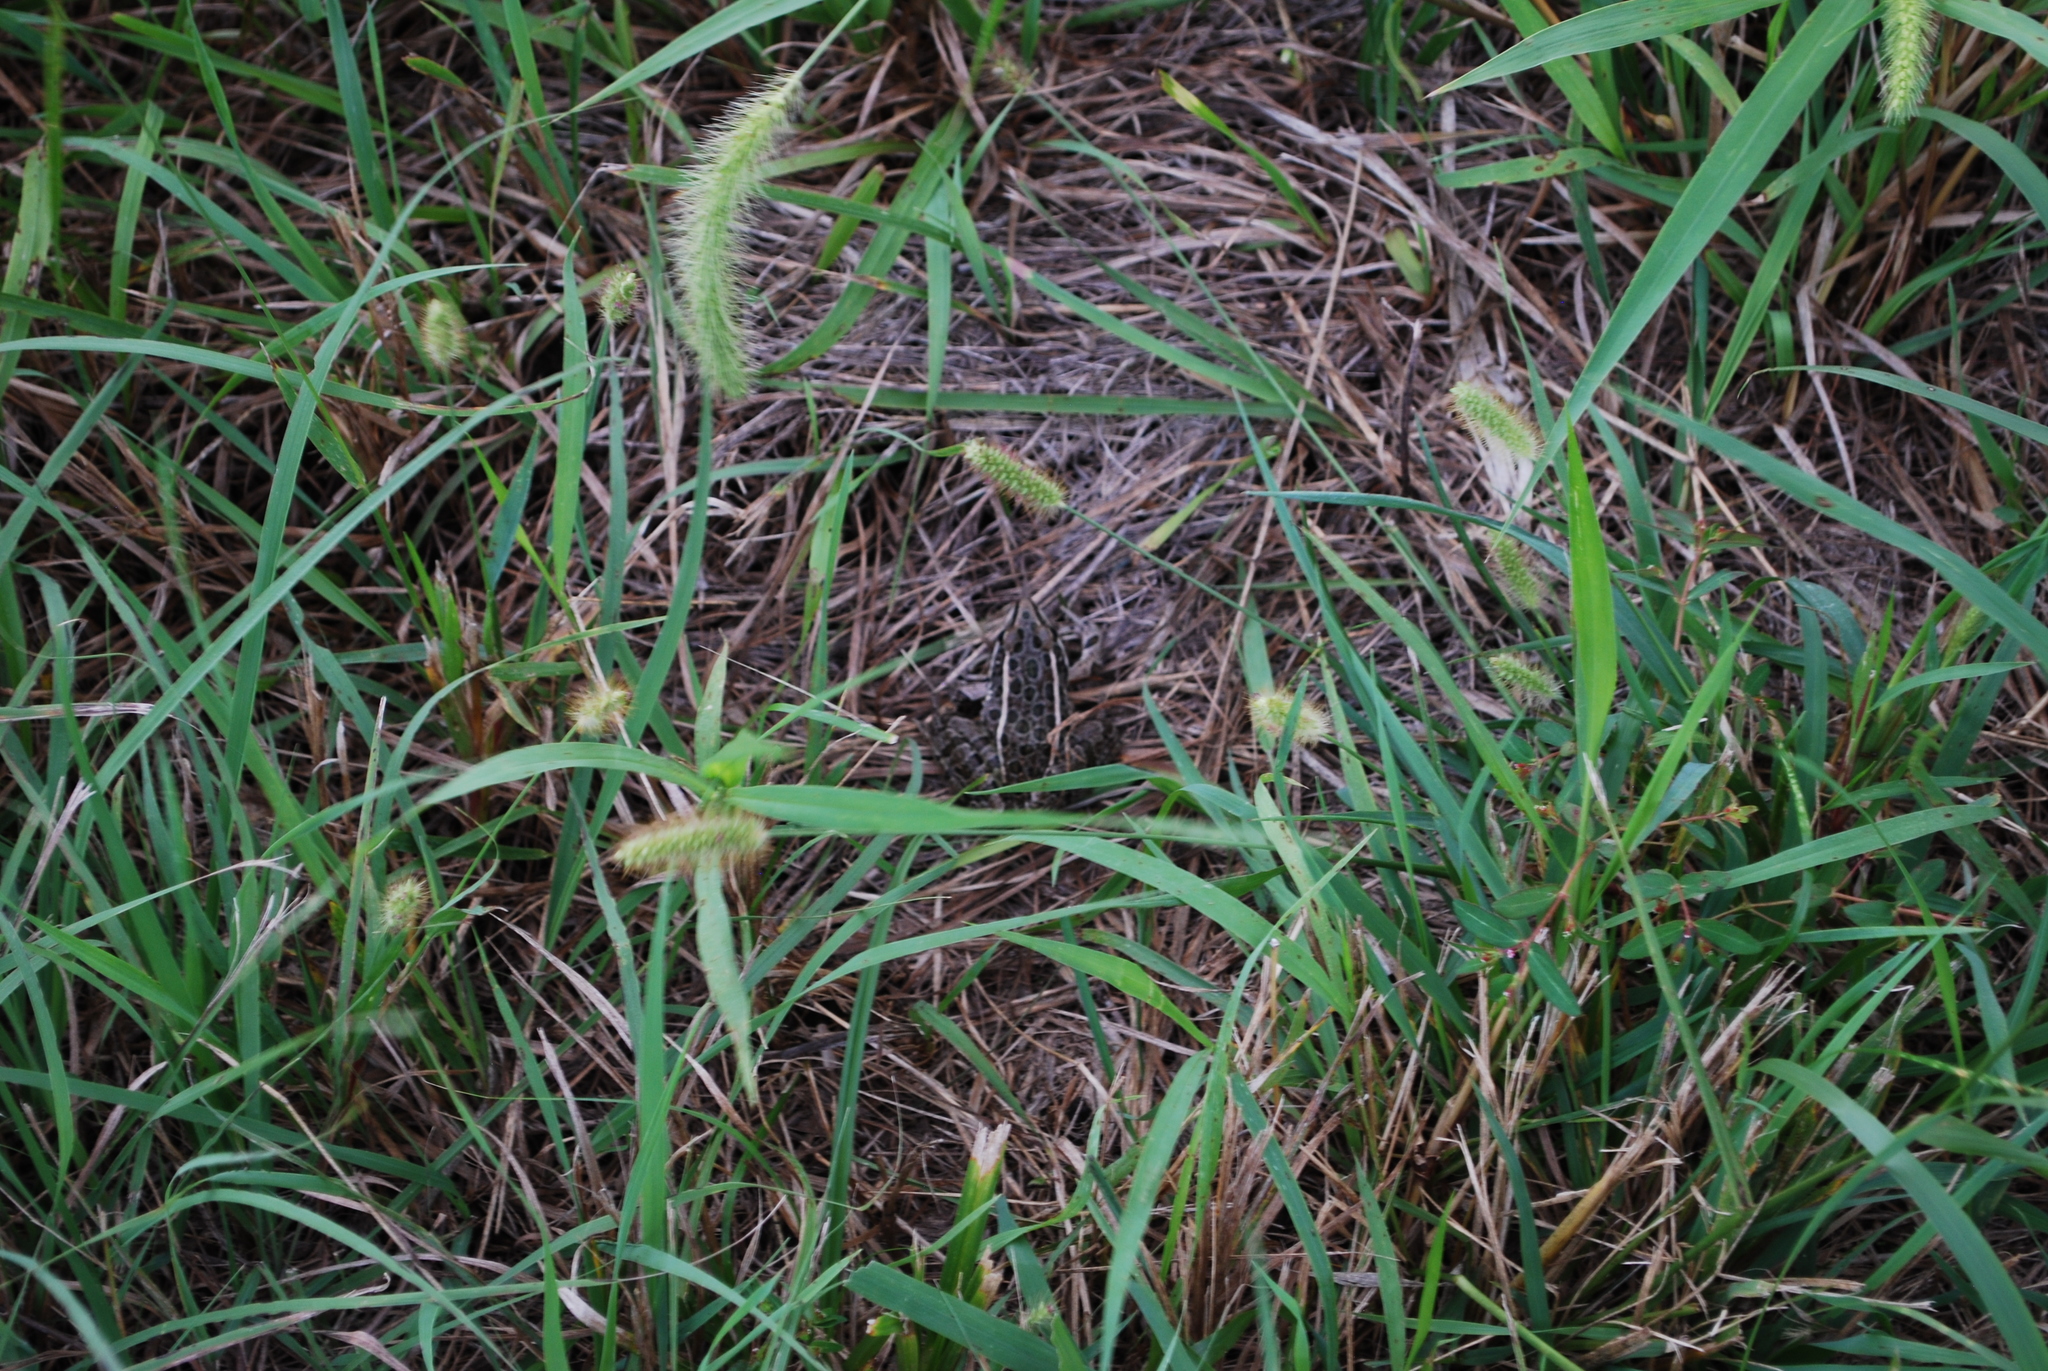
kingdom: Animalia
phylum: Chordata
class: Amphibia
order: Anura
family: Ranidae
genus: Lithobates
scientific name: Lithobates blairi
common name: Plains leopard frog
